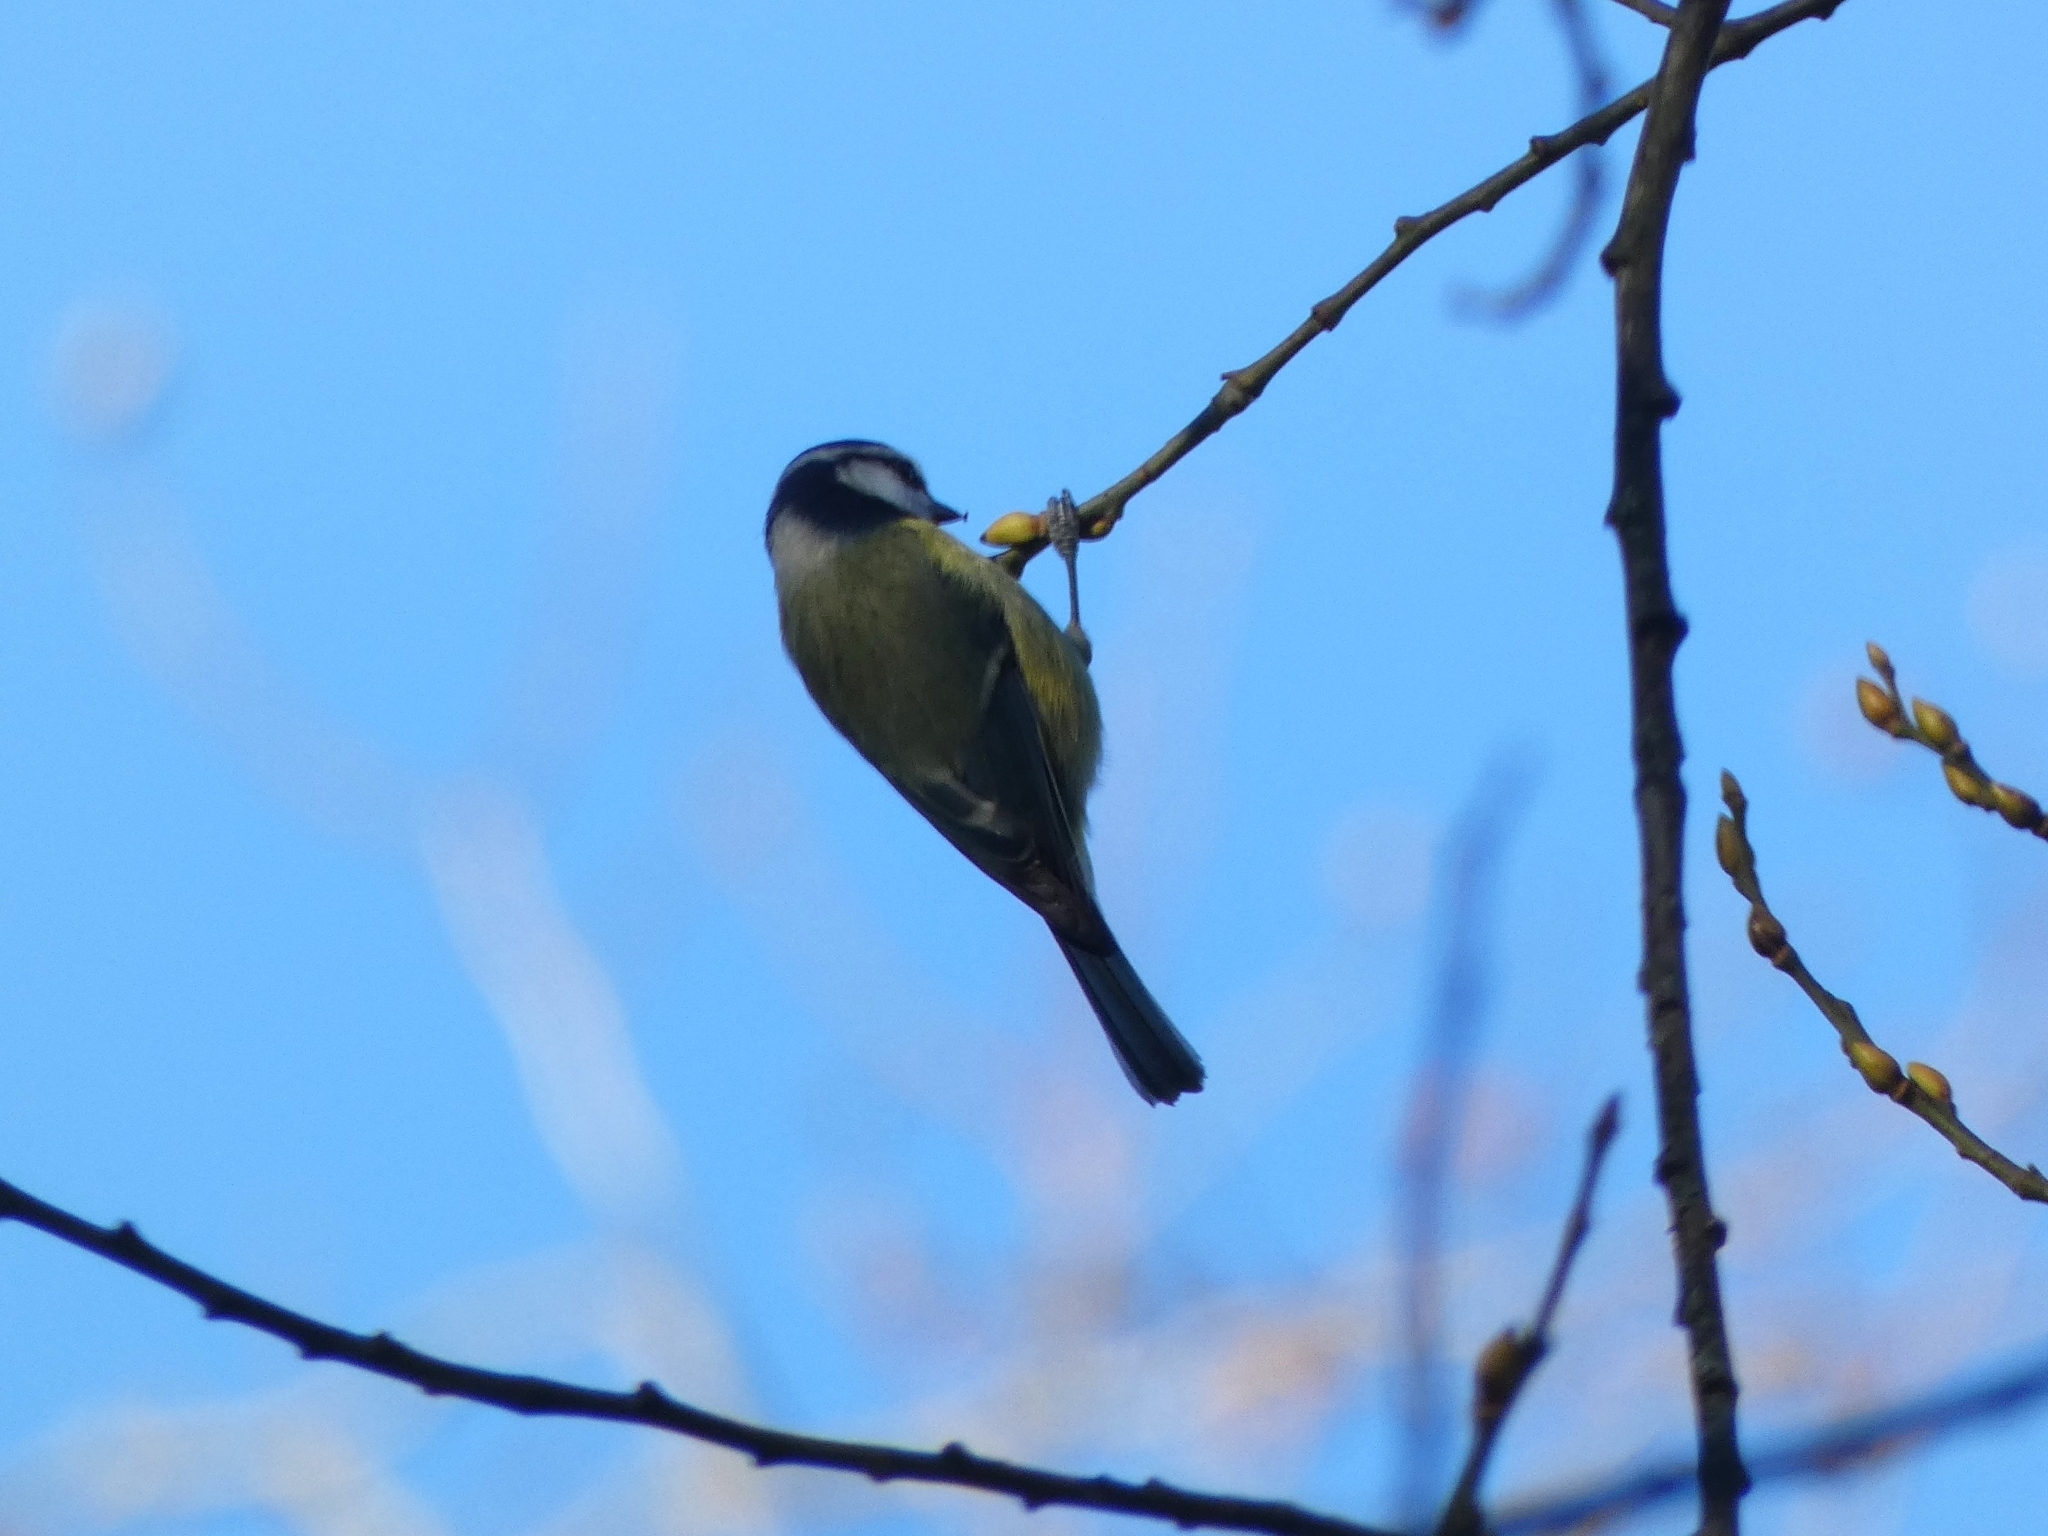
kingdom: Animalia
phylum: Chordata
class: Aves
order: Passeriformes
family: Paridae
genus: Cyanistes
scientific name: Cyanistes caeruleus
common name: Eurasian blue tit
